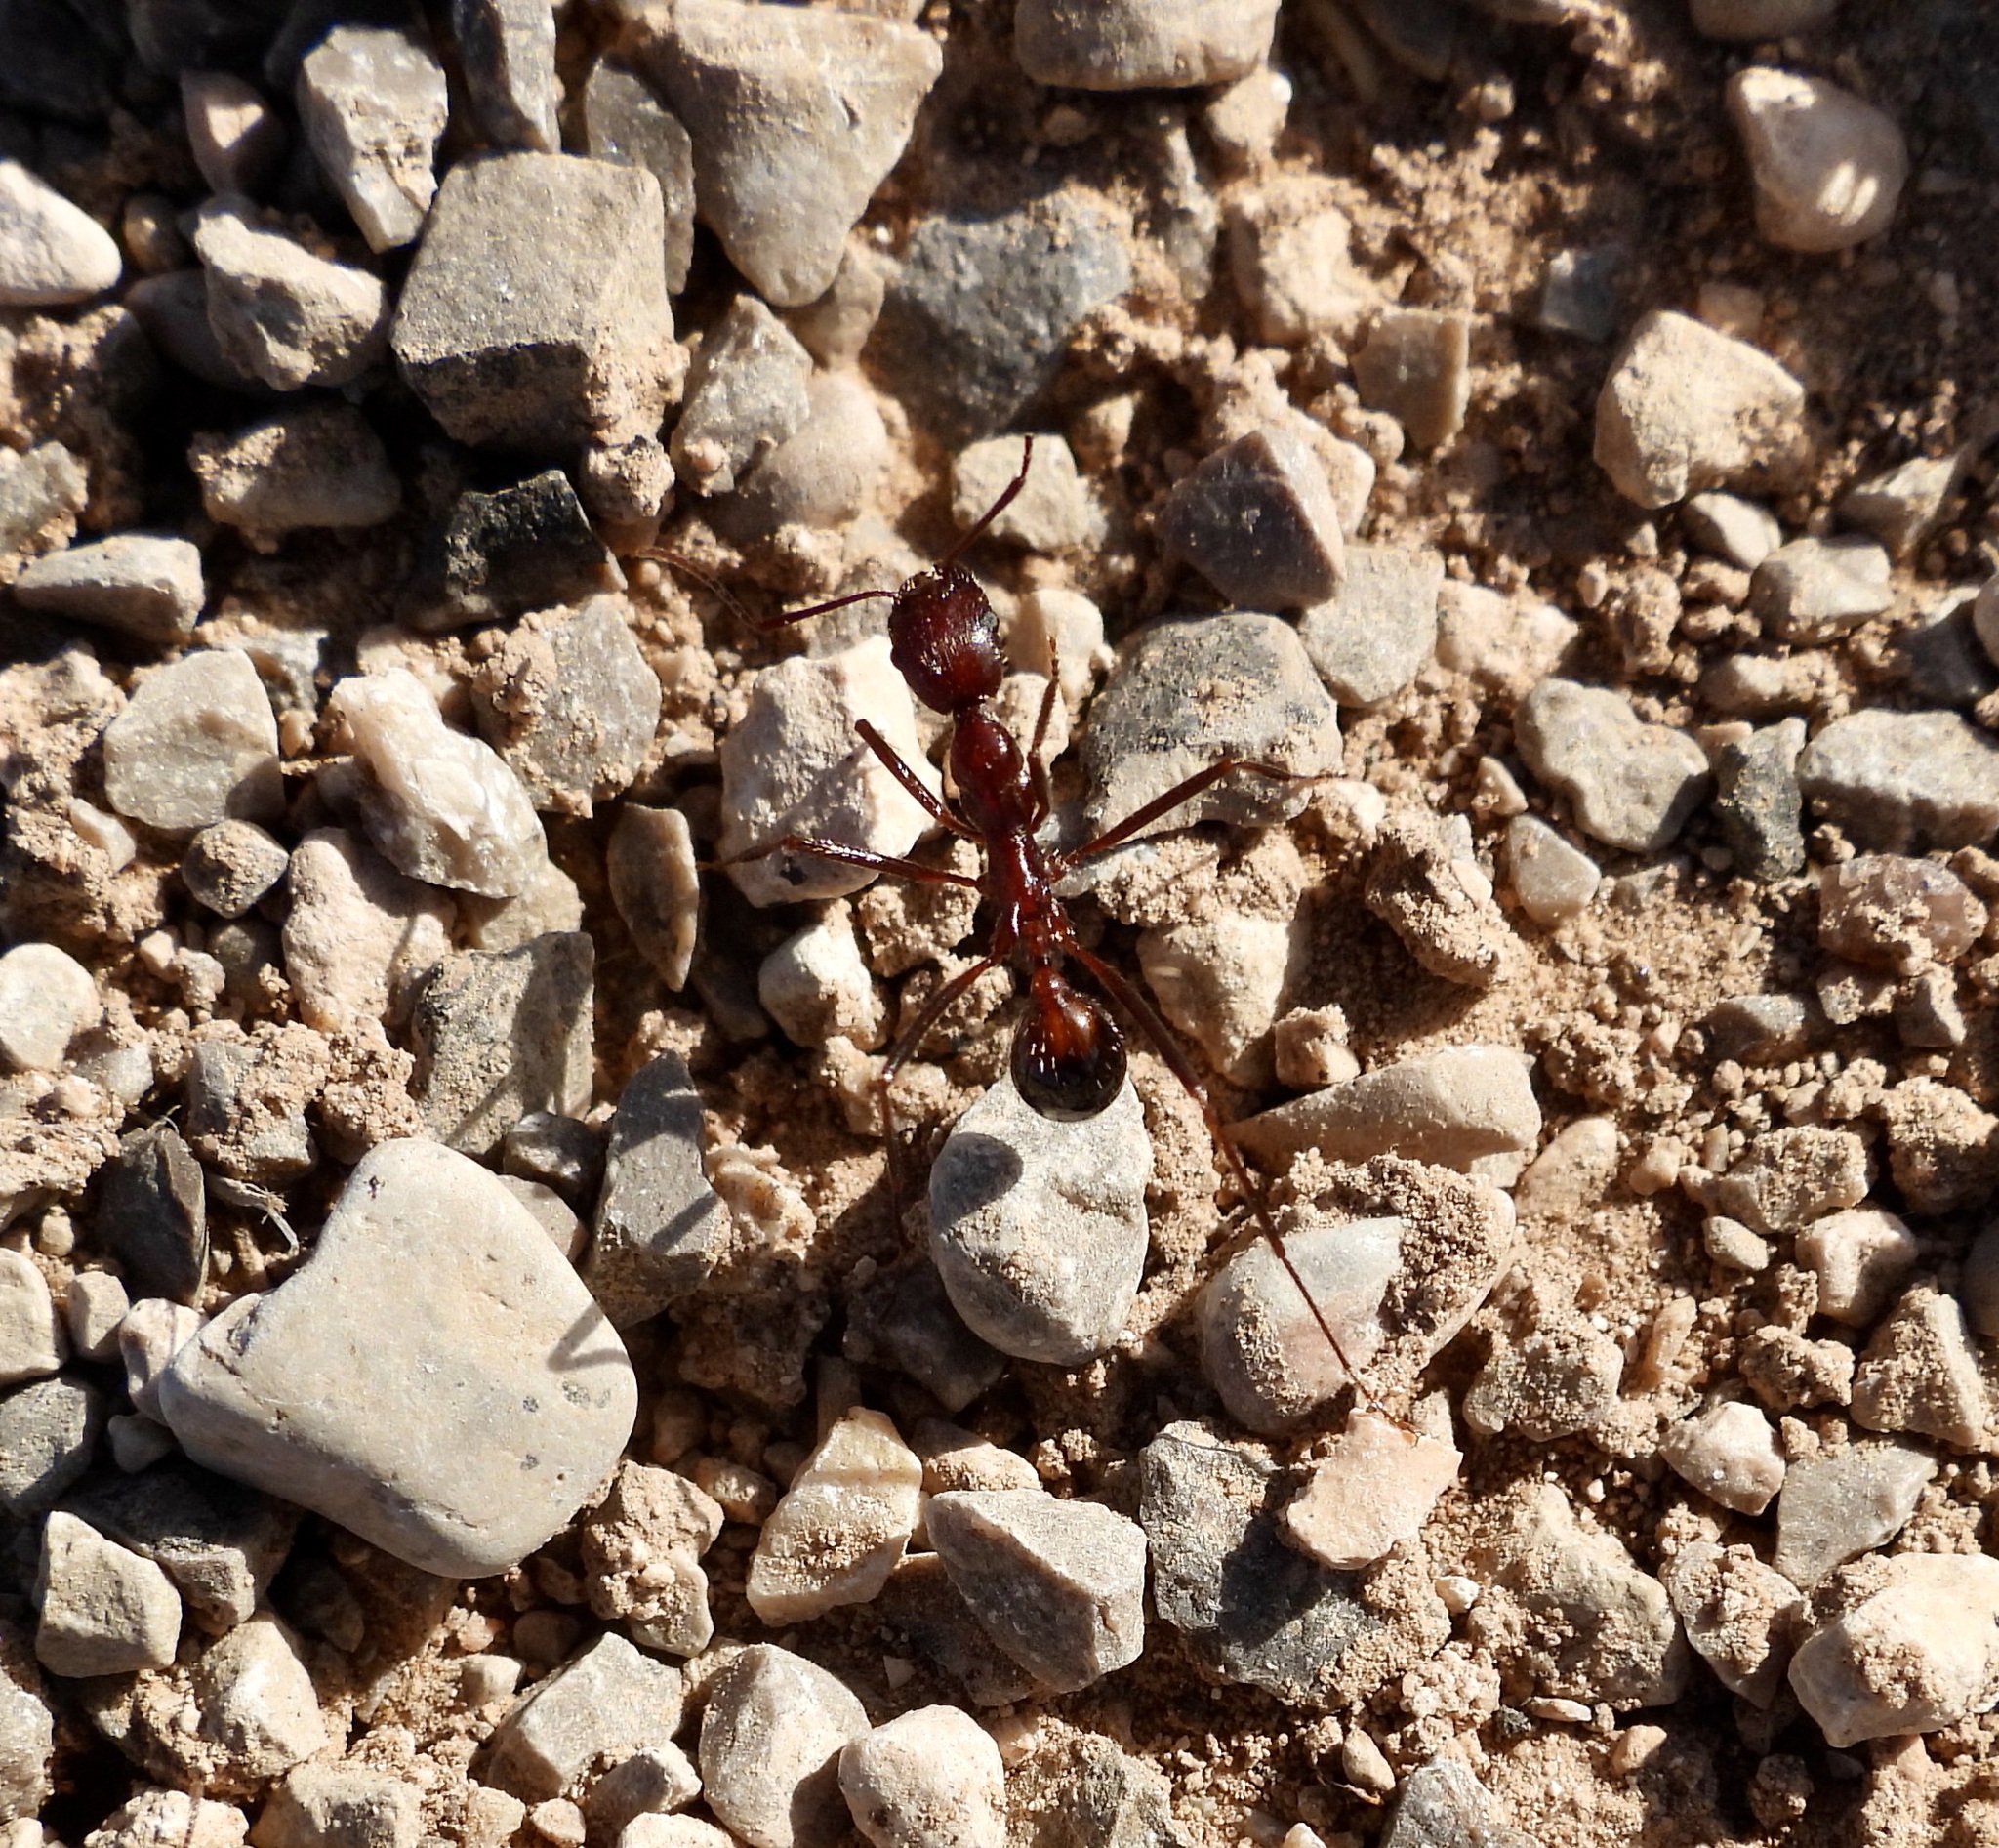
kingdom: Animalia
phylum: Arthropoda
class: Insecta
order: Hymenoptera
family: Formicidae
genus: Novomessor
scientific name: Novomessor cockerelli
